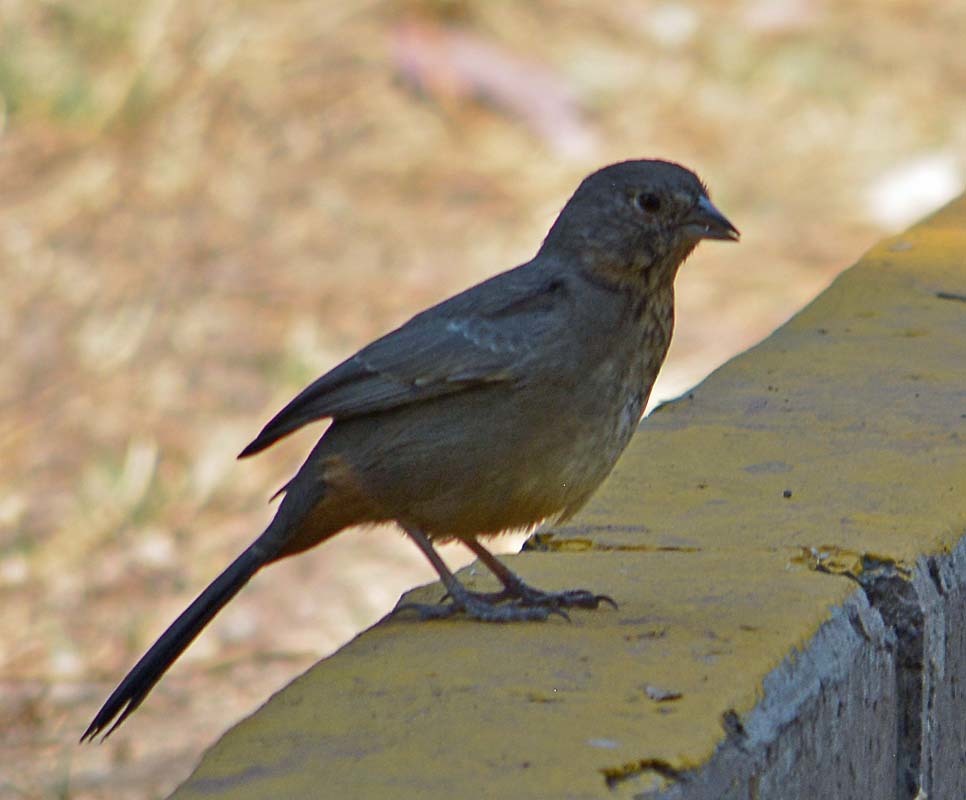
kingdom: Animalia
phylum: Chordata
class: Aves
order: Passeriformes
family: Passerellidae
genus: Melozone
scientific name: Melozone fusca
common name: Canyon towhee
